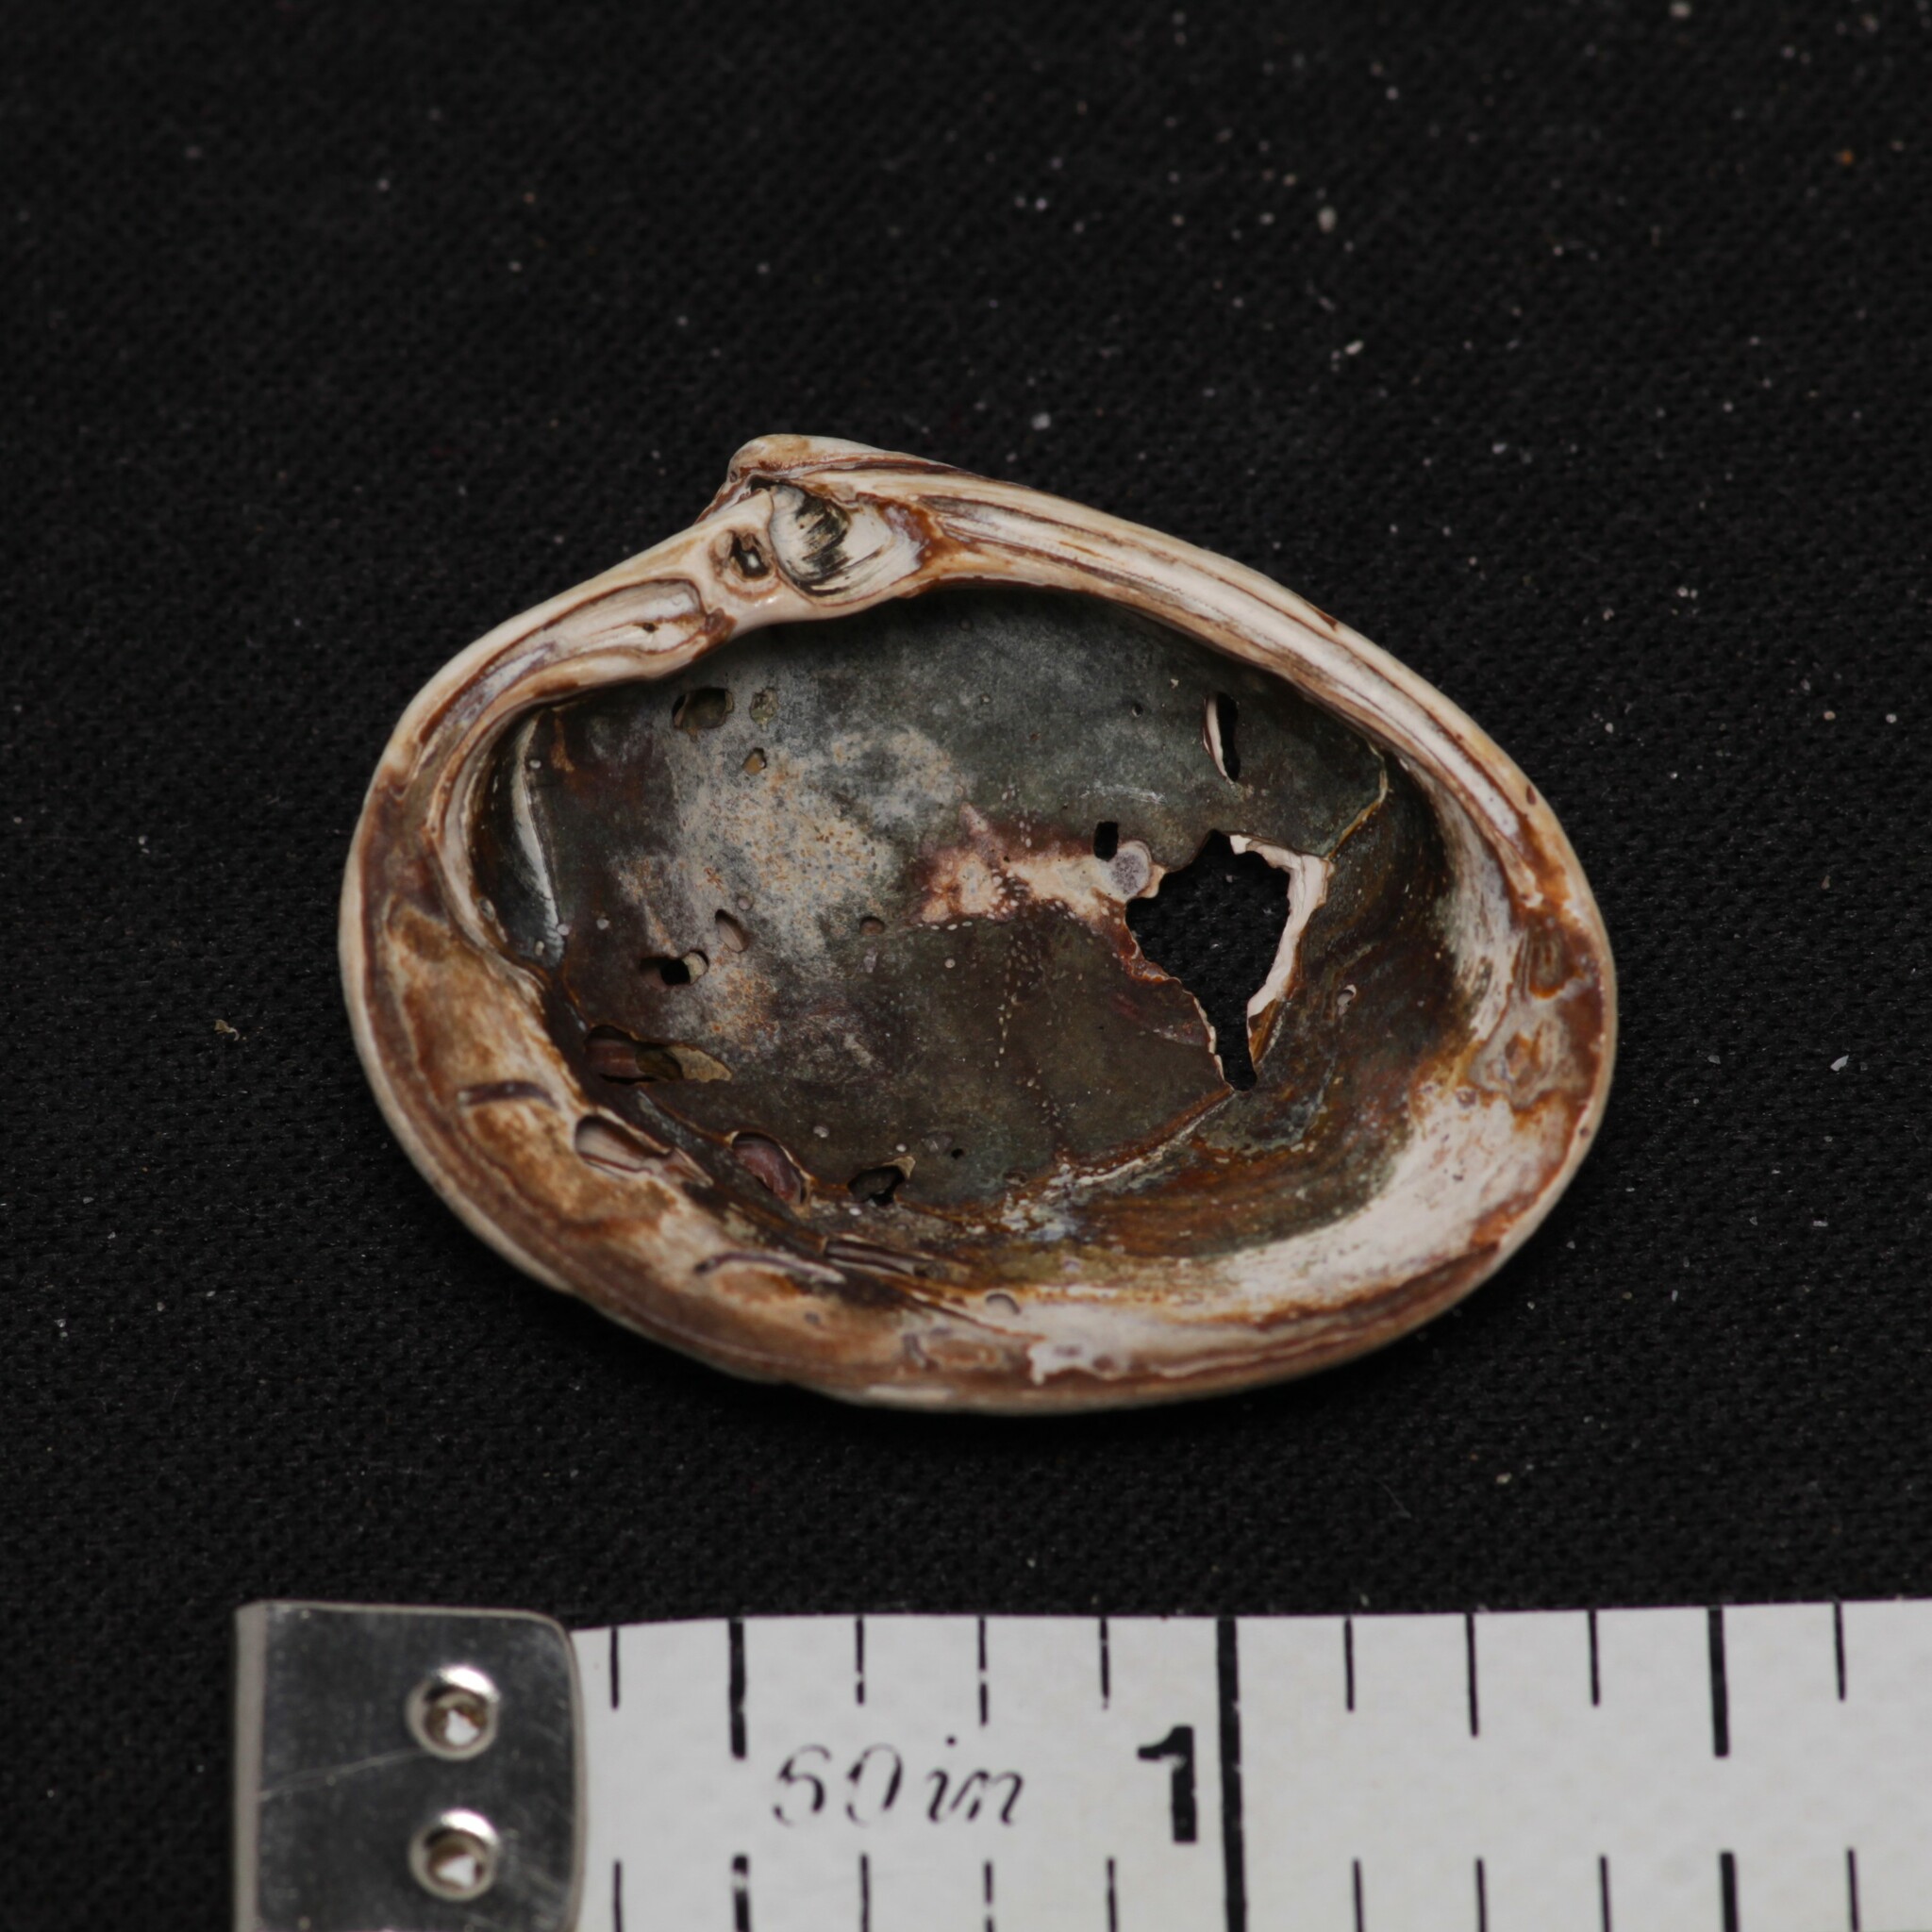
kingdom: Animalia
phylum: Mollusca
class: Bivalvia
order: Venerida
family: Mactridae
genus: Rangia
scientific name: Rangia cuneata
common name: Atlantic rangia
